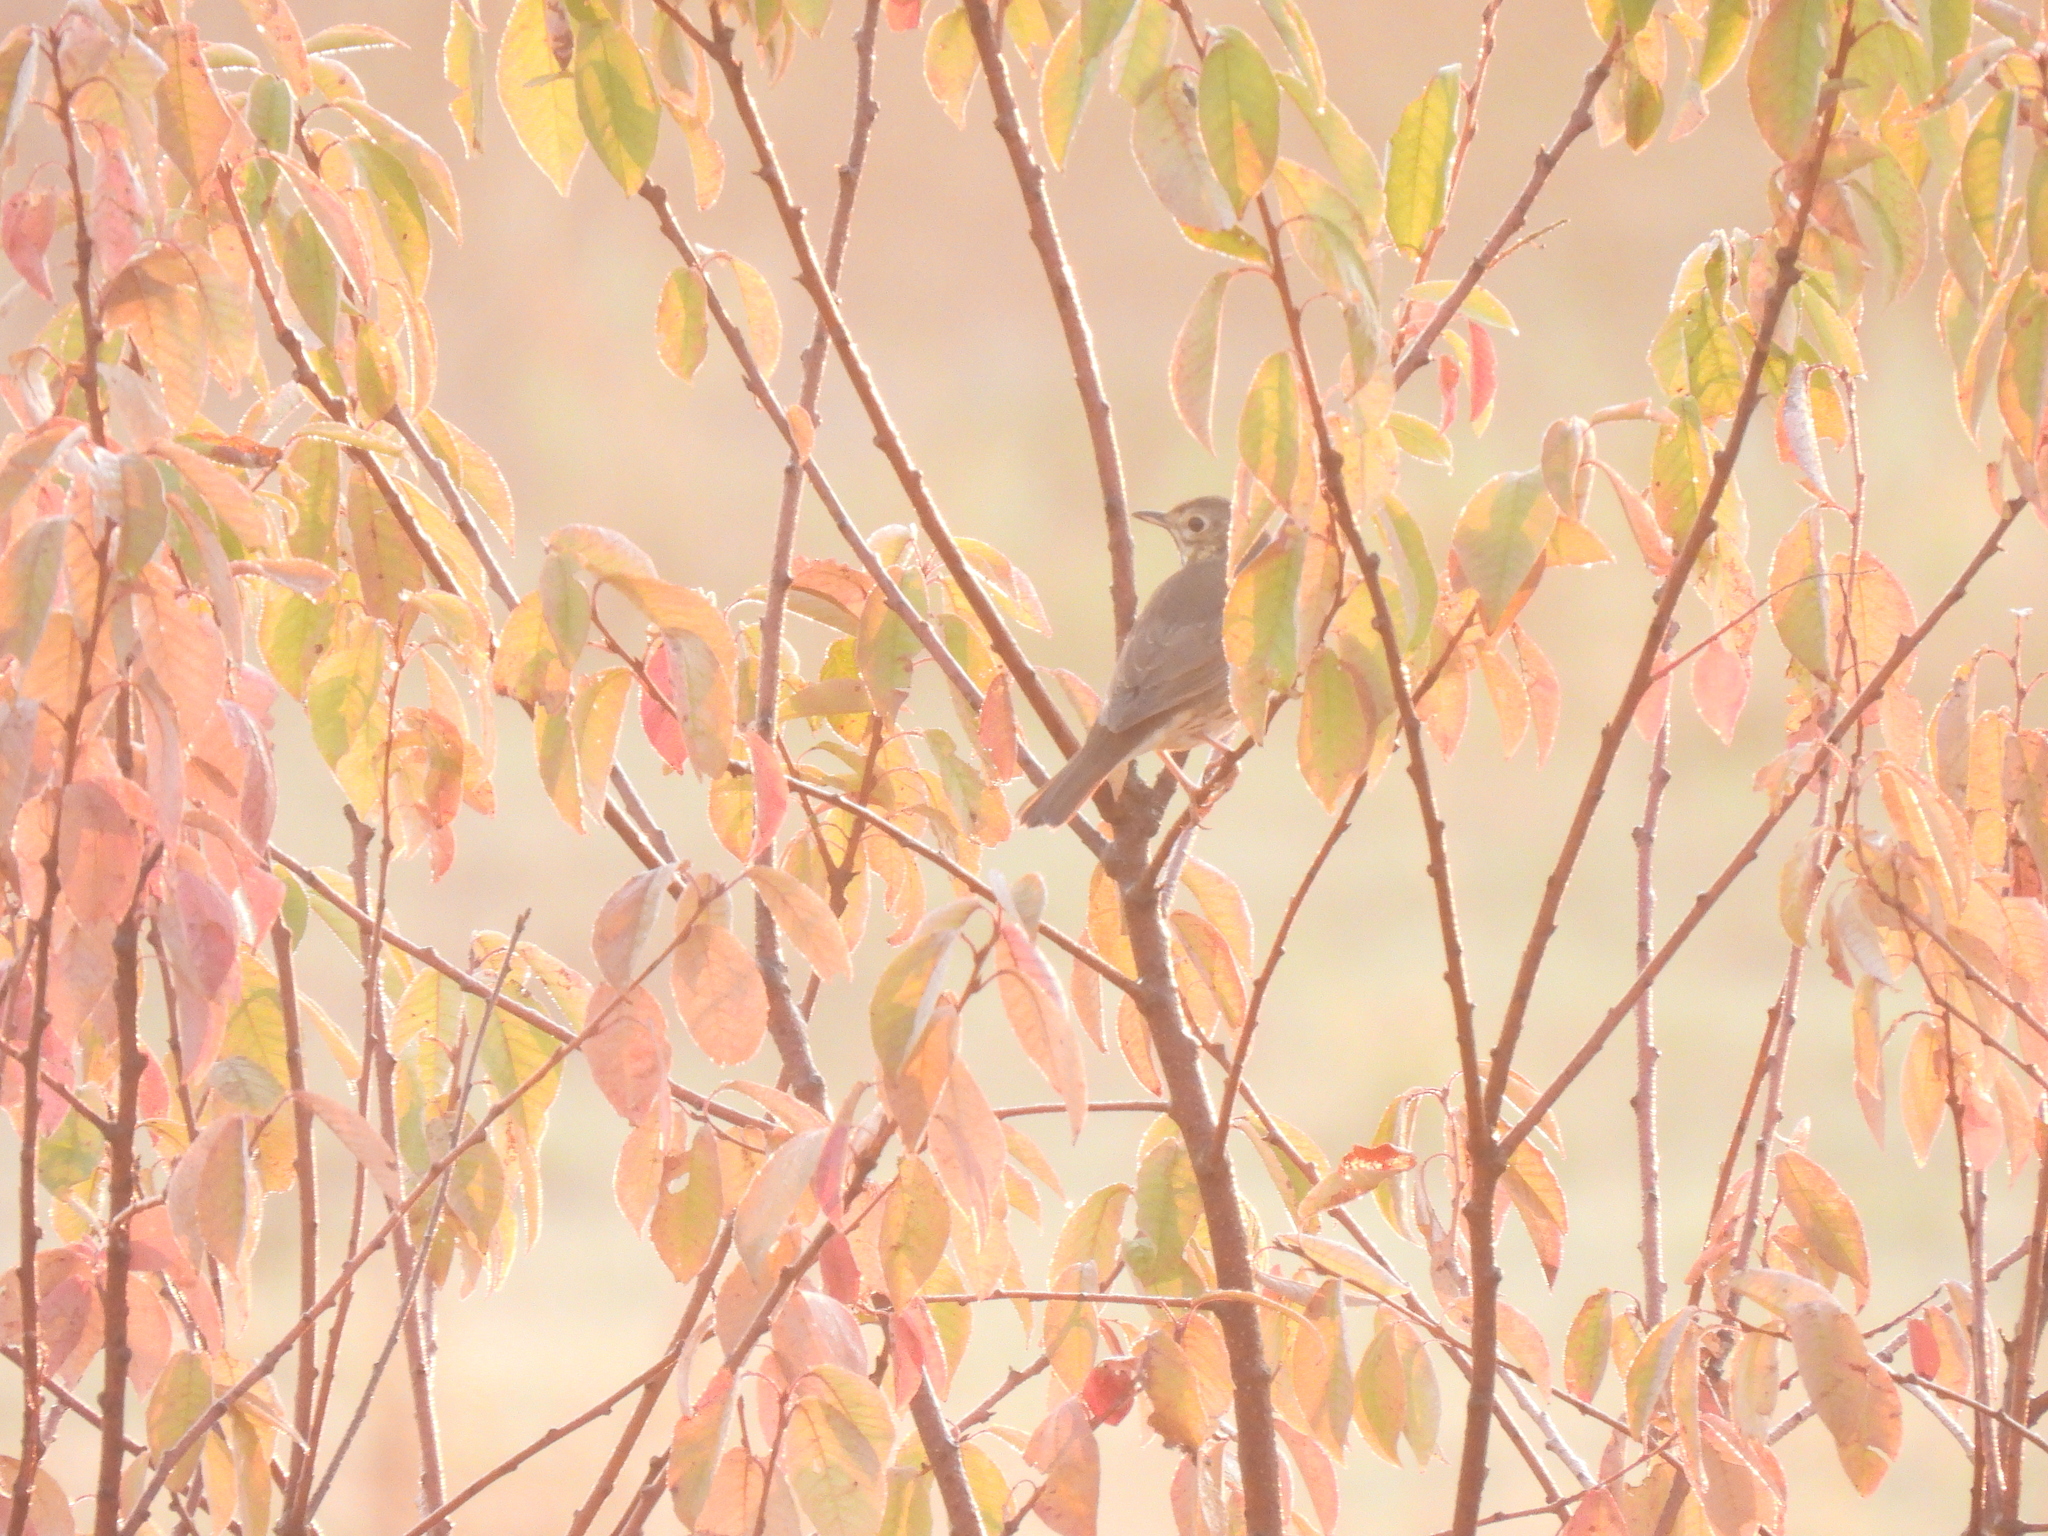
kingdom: Animalia
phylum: Chordata
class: Aves
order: Passeriformes
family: Turdidae
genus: Turdus
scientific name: Turdus philomelos
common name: Song thrush
